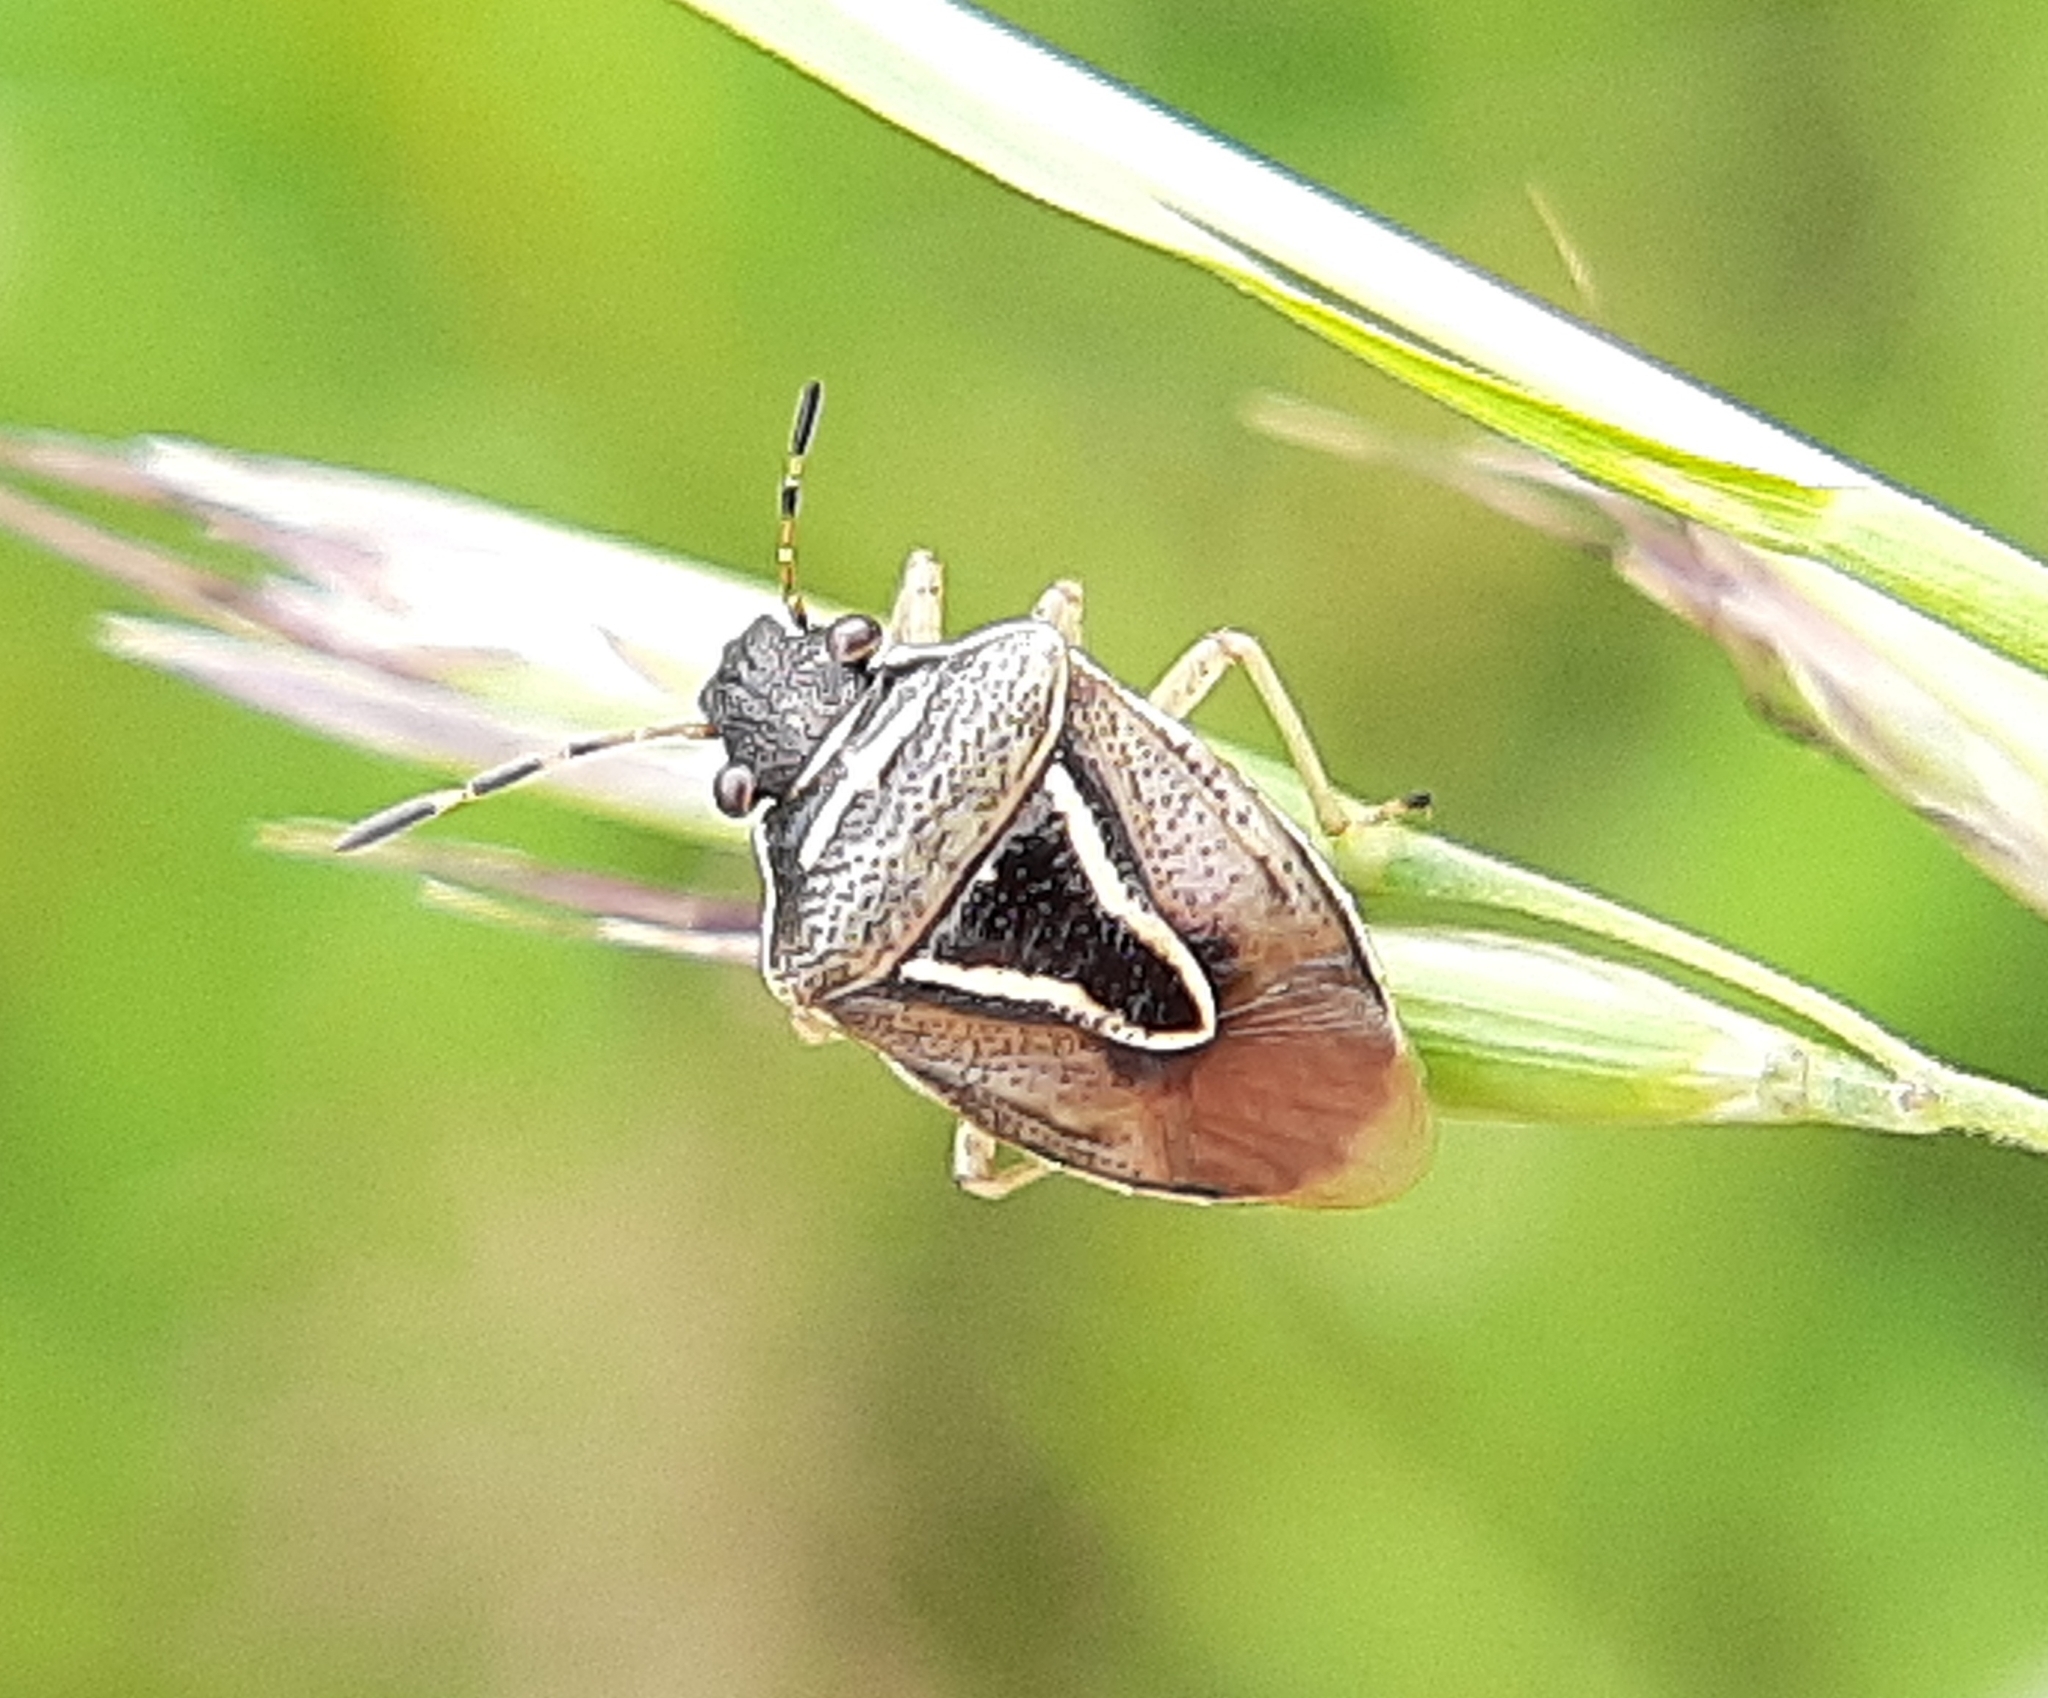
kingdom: Animalia
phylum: Arthropoda
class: Insecta
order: Hemiptera
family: Pentatomidae
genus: Mormidea
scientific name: Mormidea lugens
